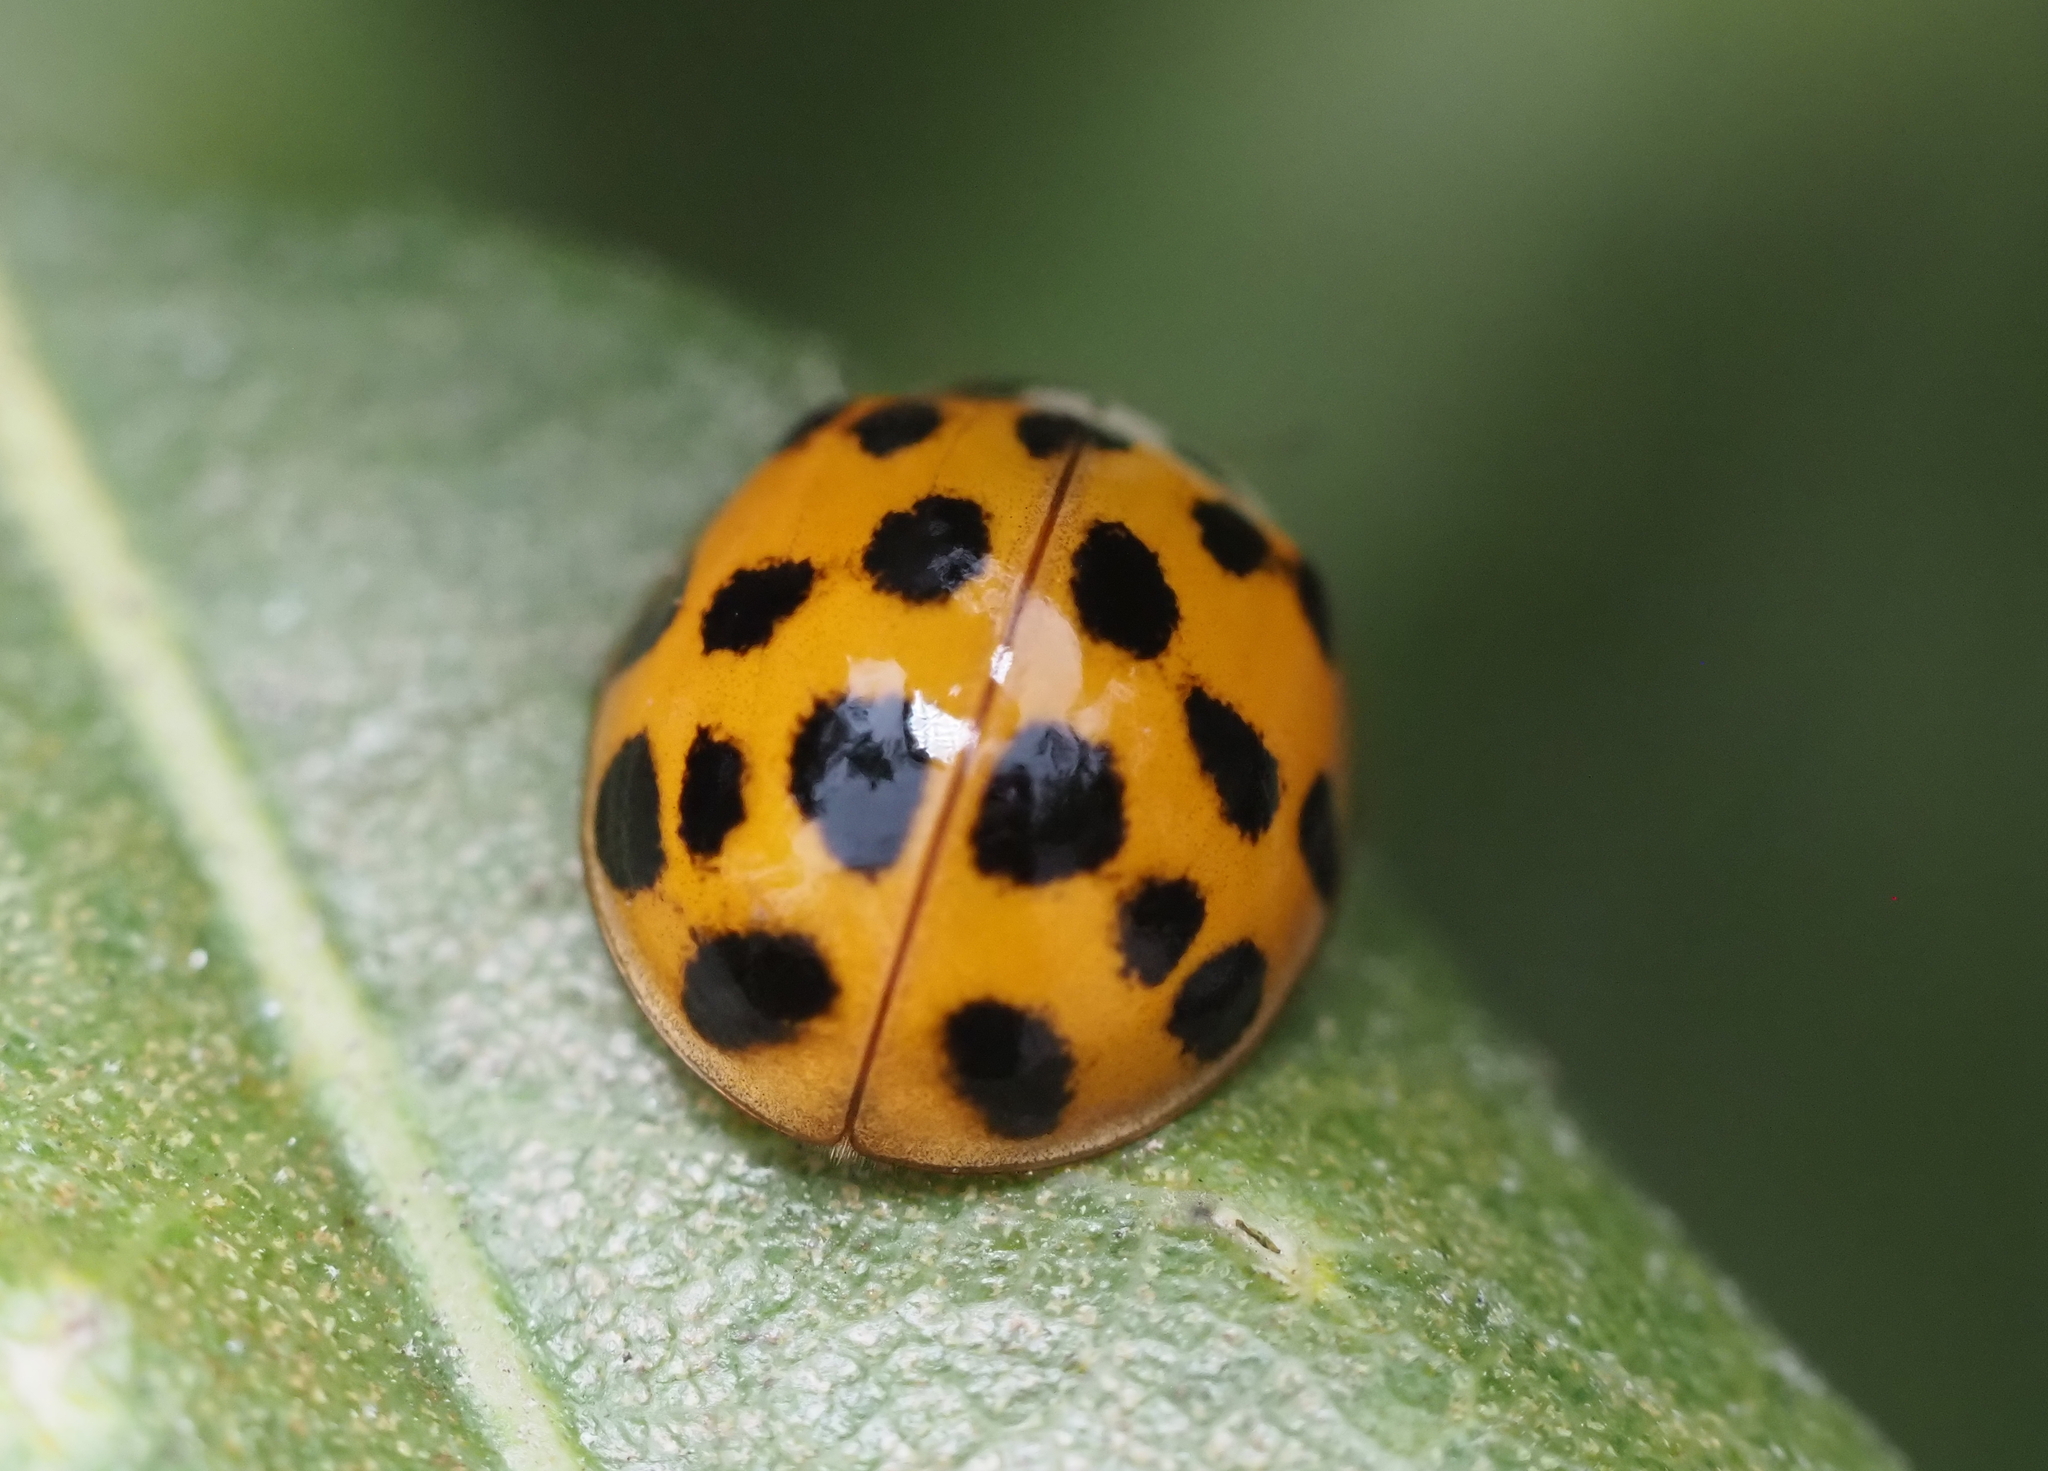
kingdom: Animalia
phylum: Arthropoda
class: Insecta
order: Coleoptera
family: Coccinellidae
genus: Harmonia
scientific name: Harmonia axyridis
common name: Harlequin ladybird
